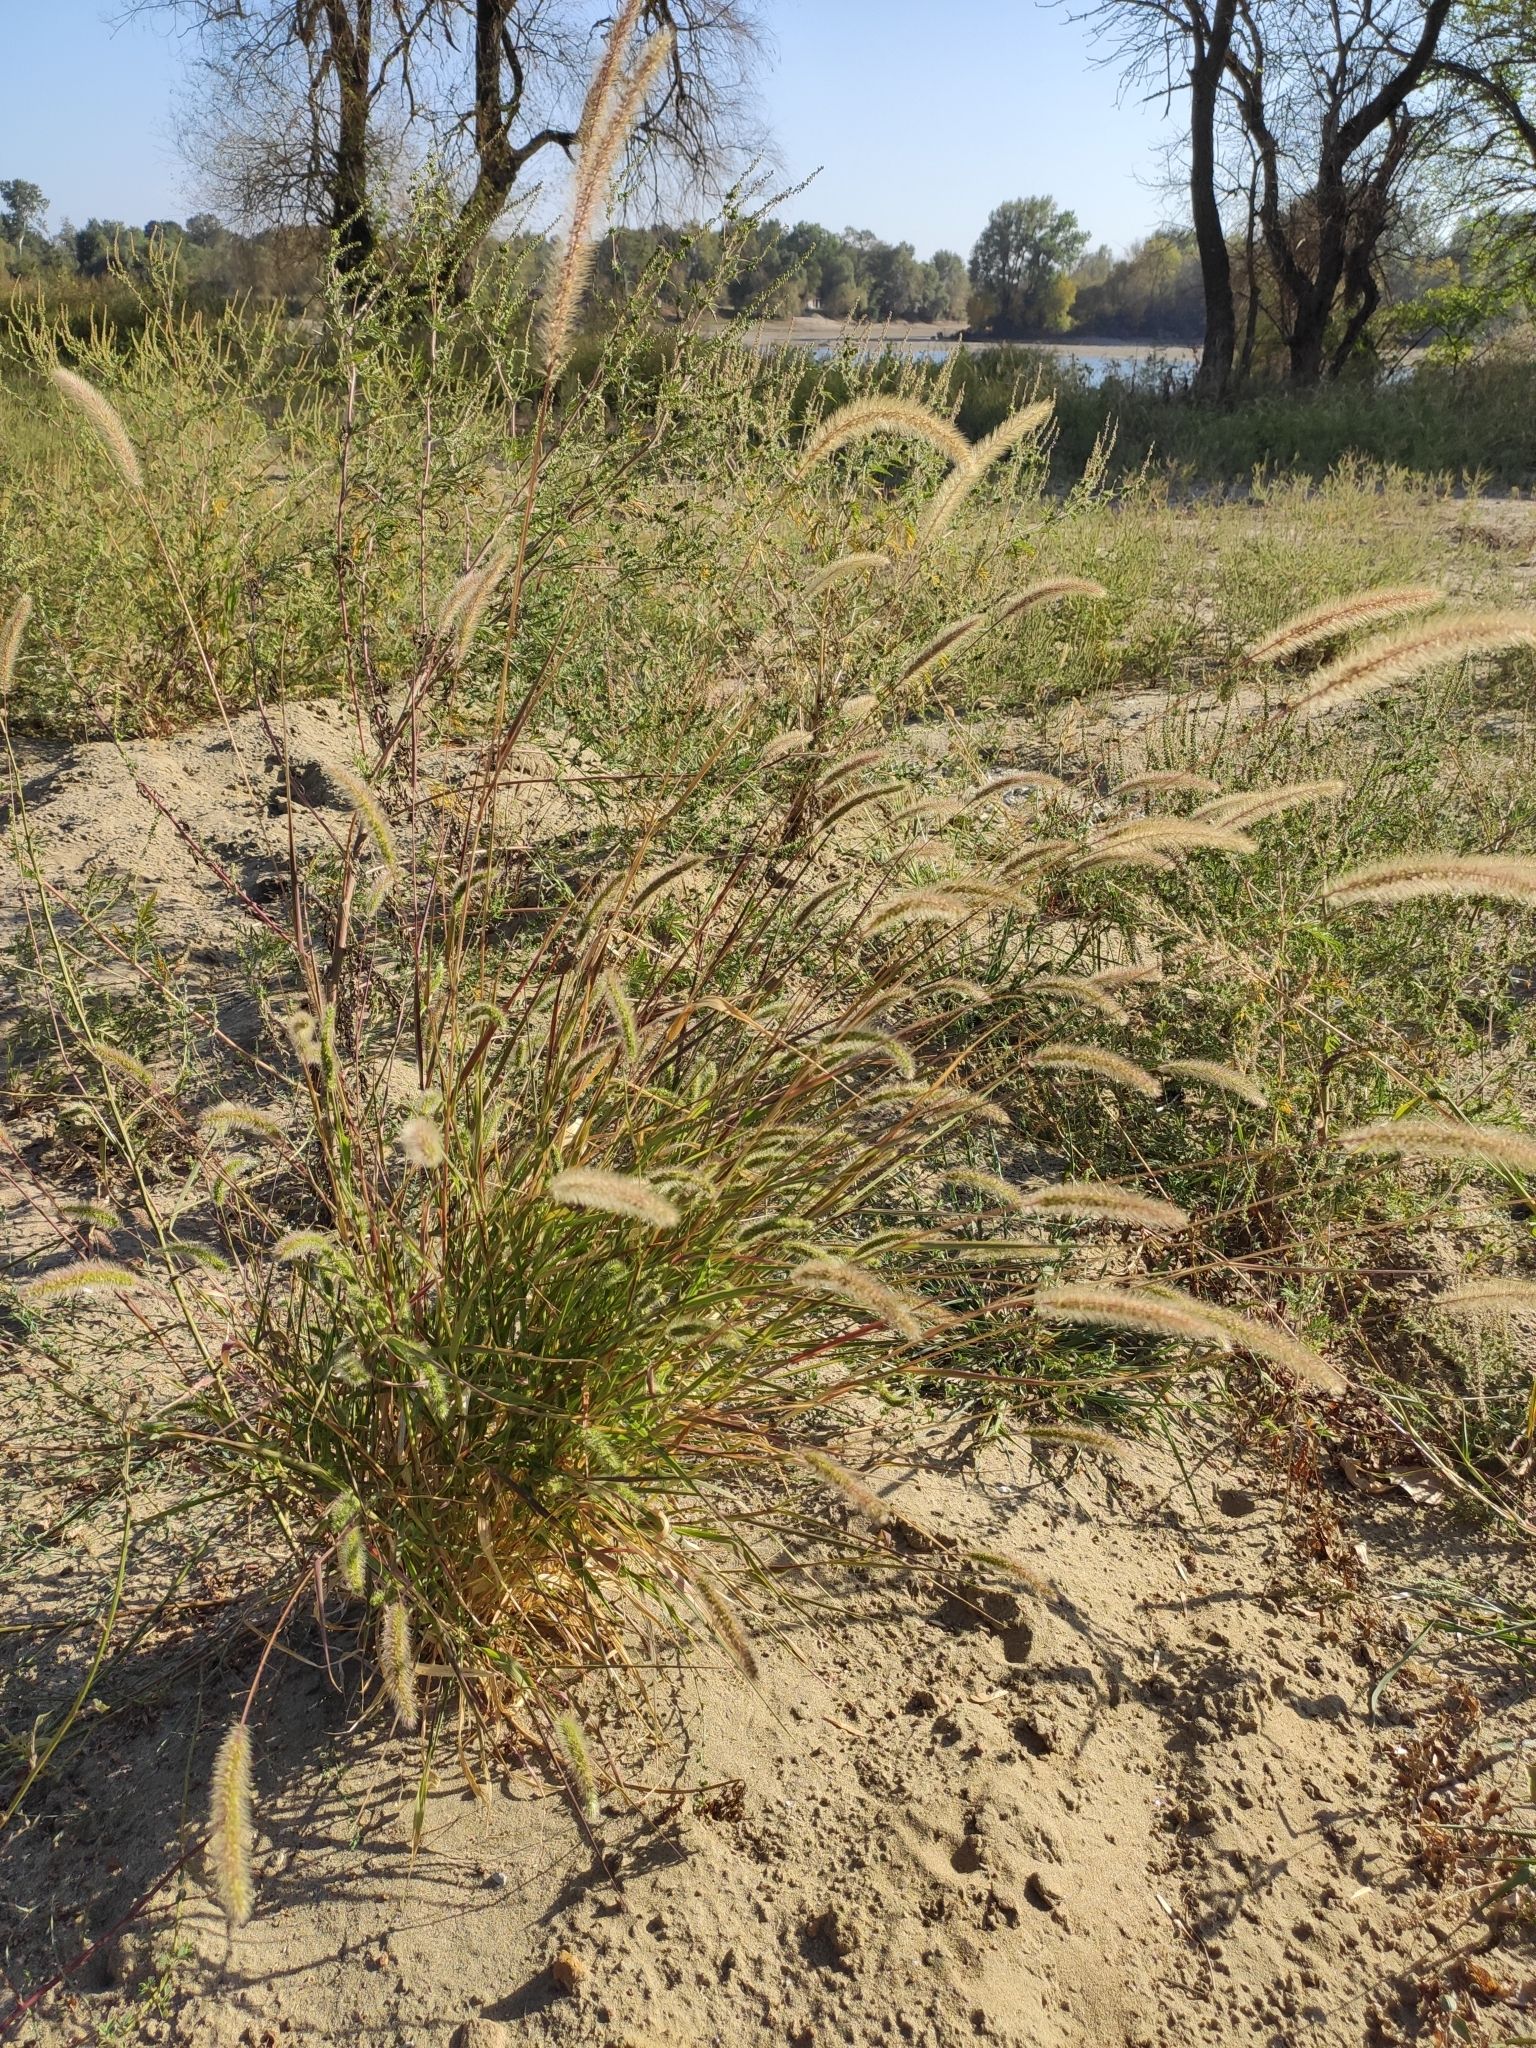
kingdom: Plantae
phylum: Tracheophyta
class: Liliopsida
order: Poales
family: Poaceae
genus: Setaria
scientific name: Setaria viridis
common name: Green bristlegrass
